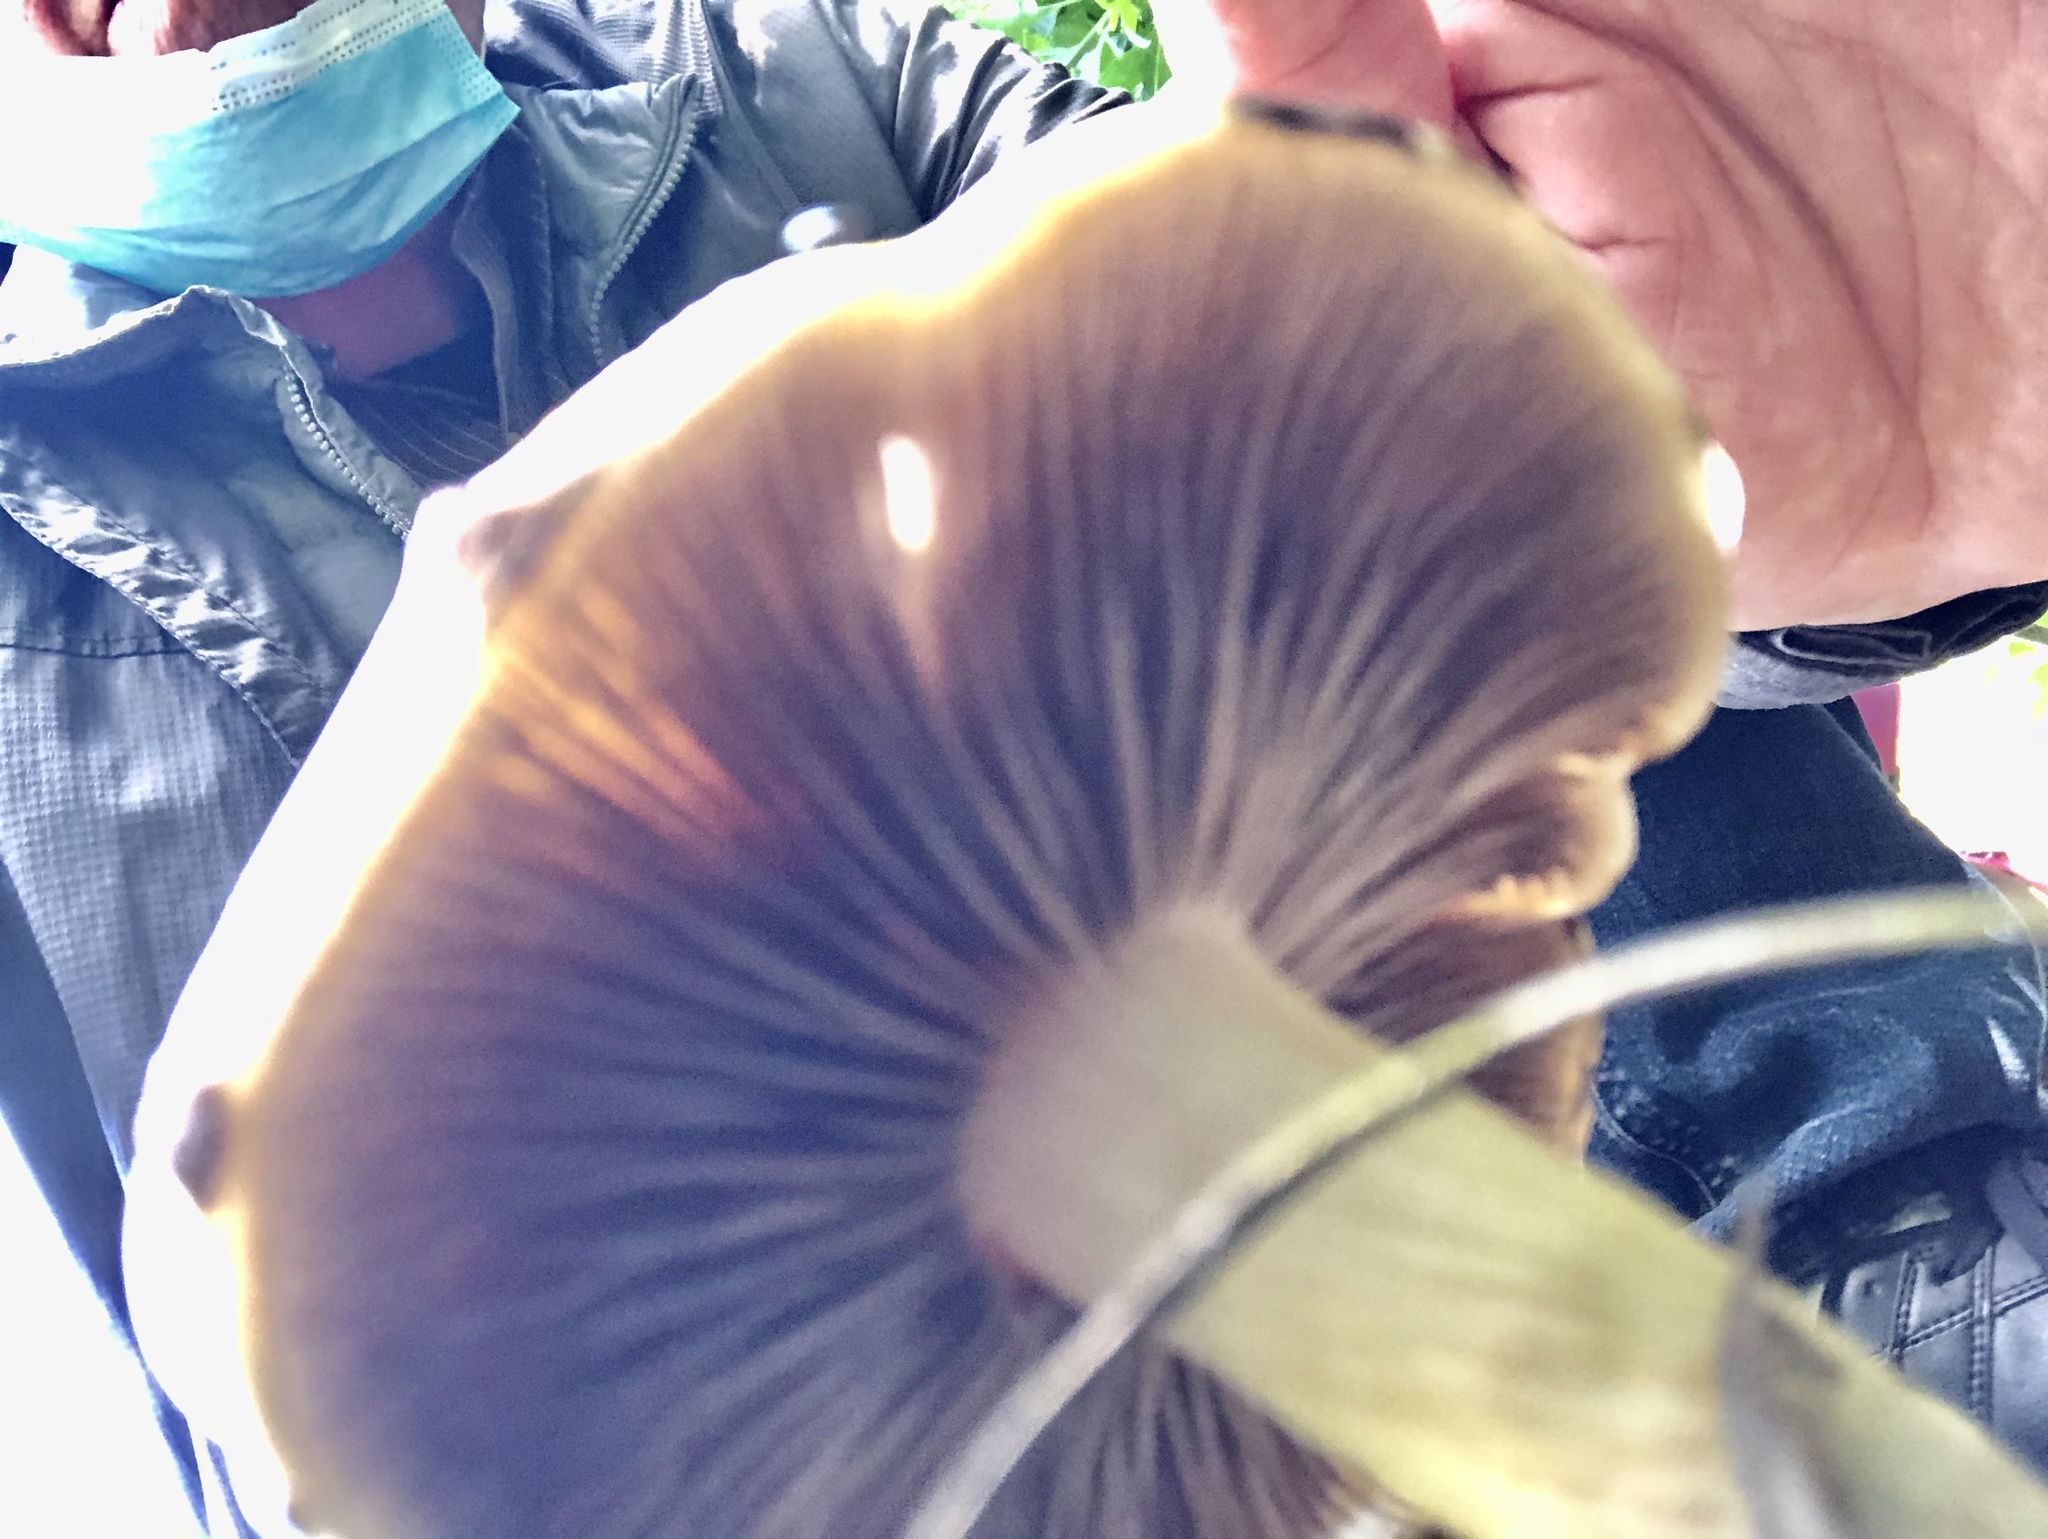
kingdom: Fungi
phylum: Basidiomycota
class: Agaricomycetes
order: Agaricales
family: Strophariaceae
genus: Leratiomyces
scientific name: Leratiomyces percevalii
